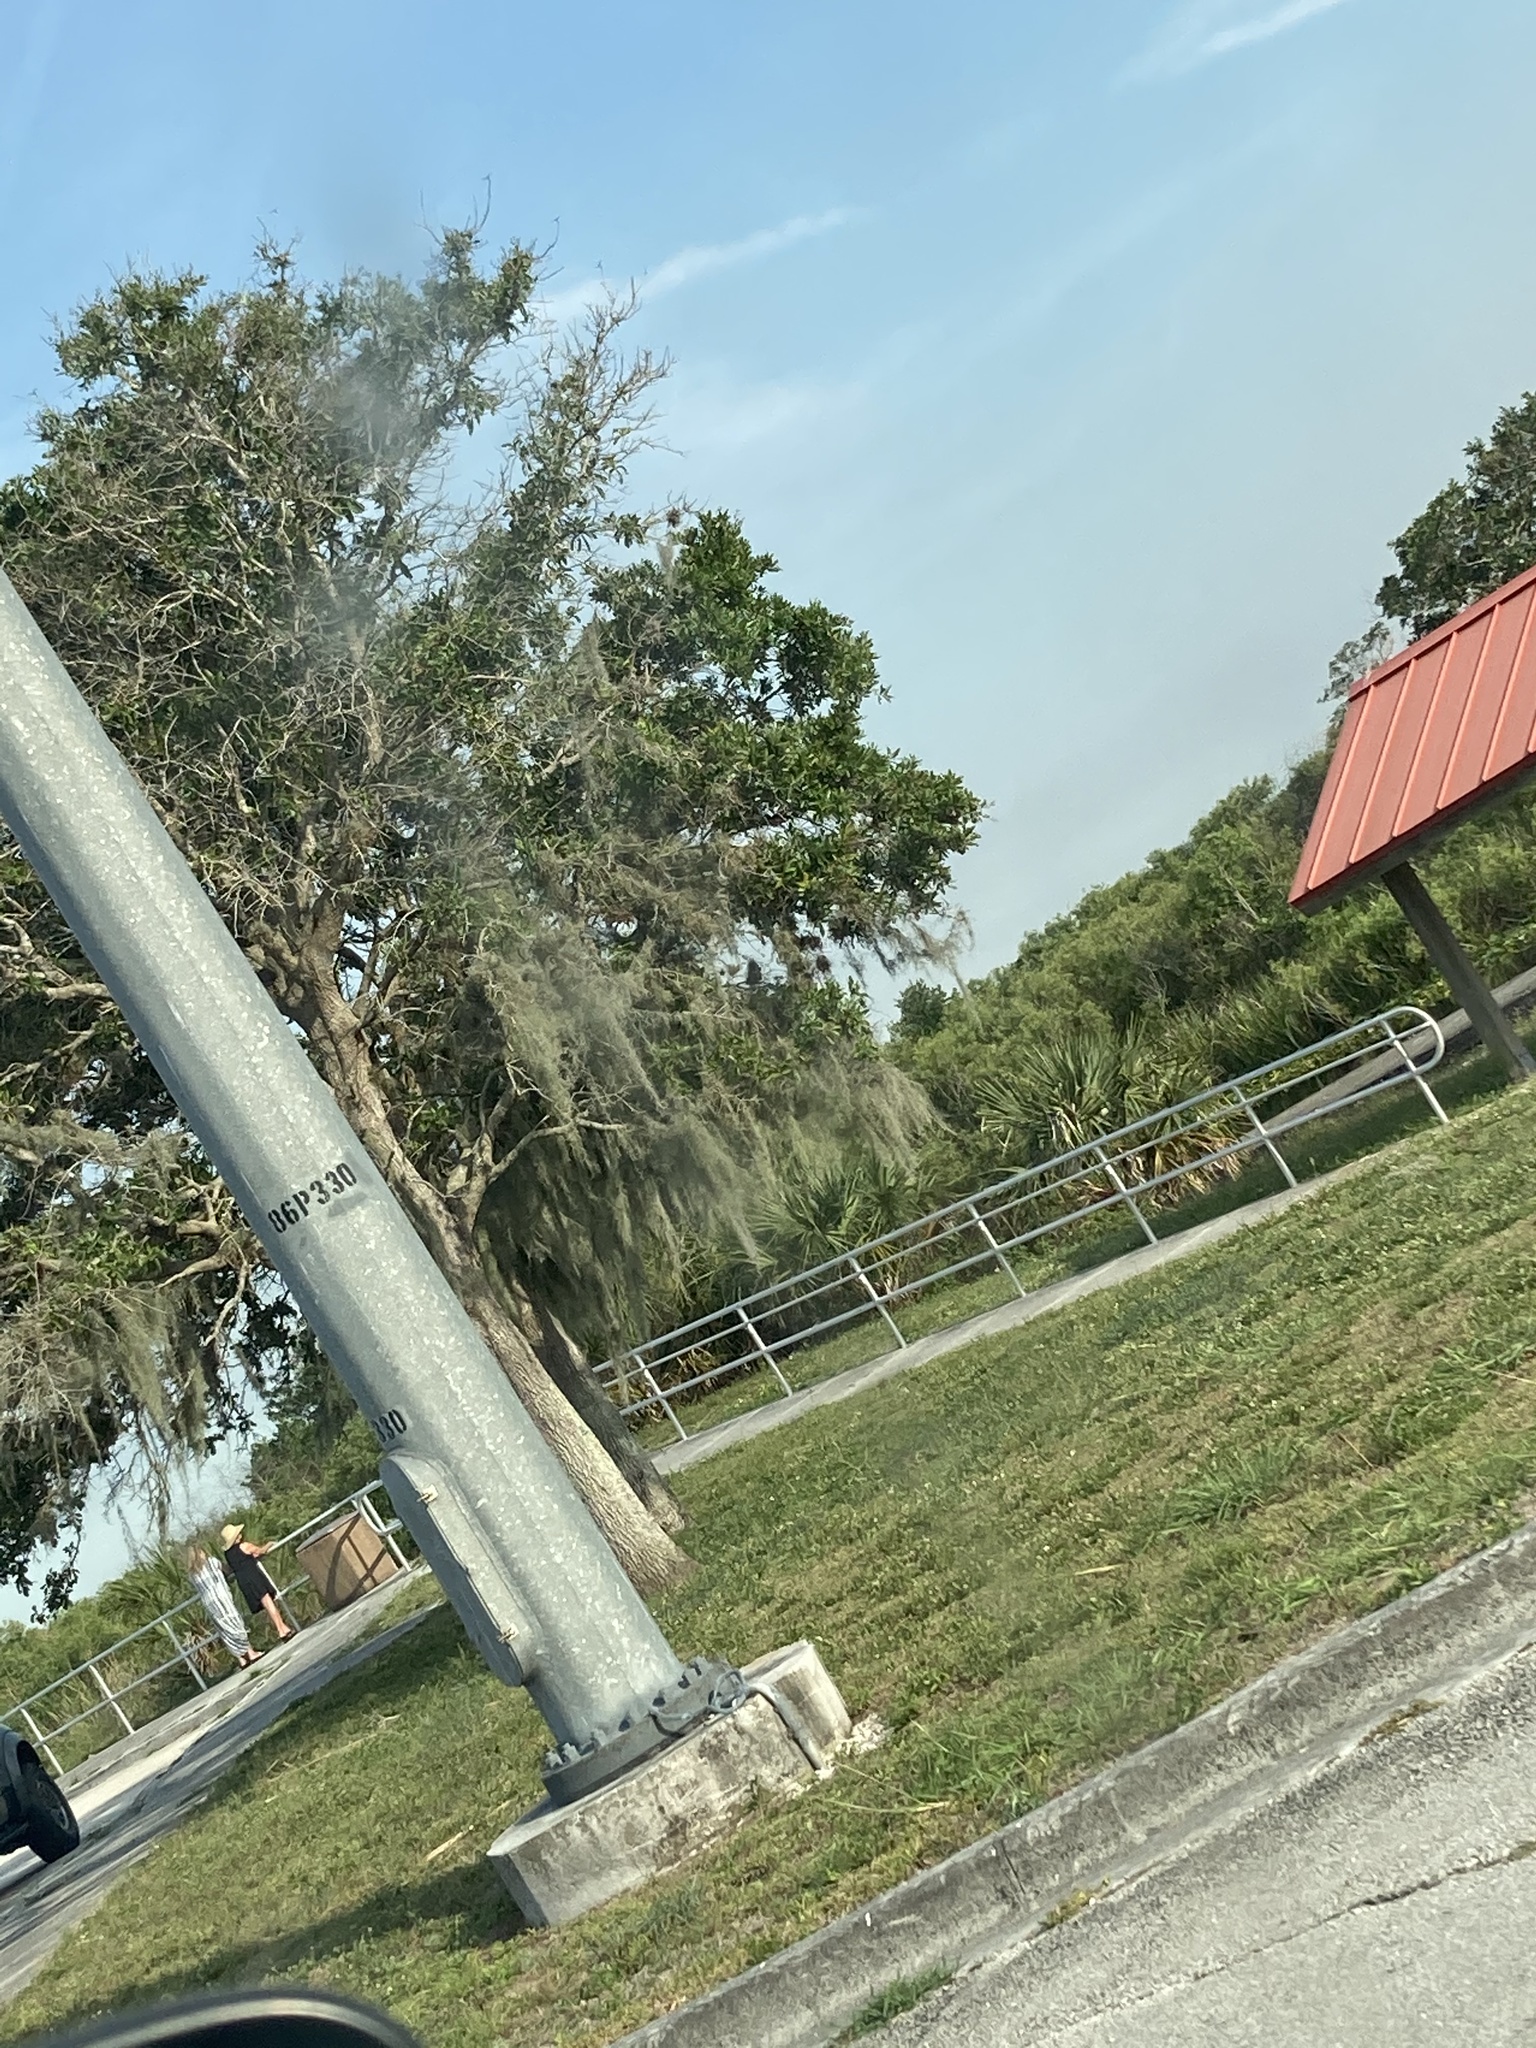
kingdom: Plantae
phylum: Tracheophyta
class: Liliopsida
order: Poales
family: Bromeliaceae
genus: Tillandsia
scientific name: Tillandsia usneoides
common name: Spanish moss
